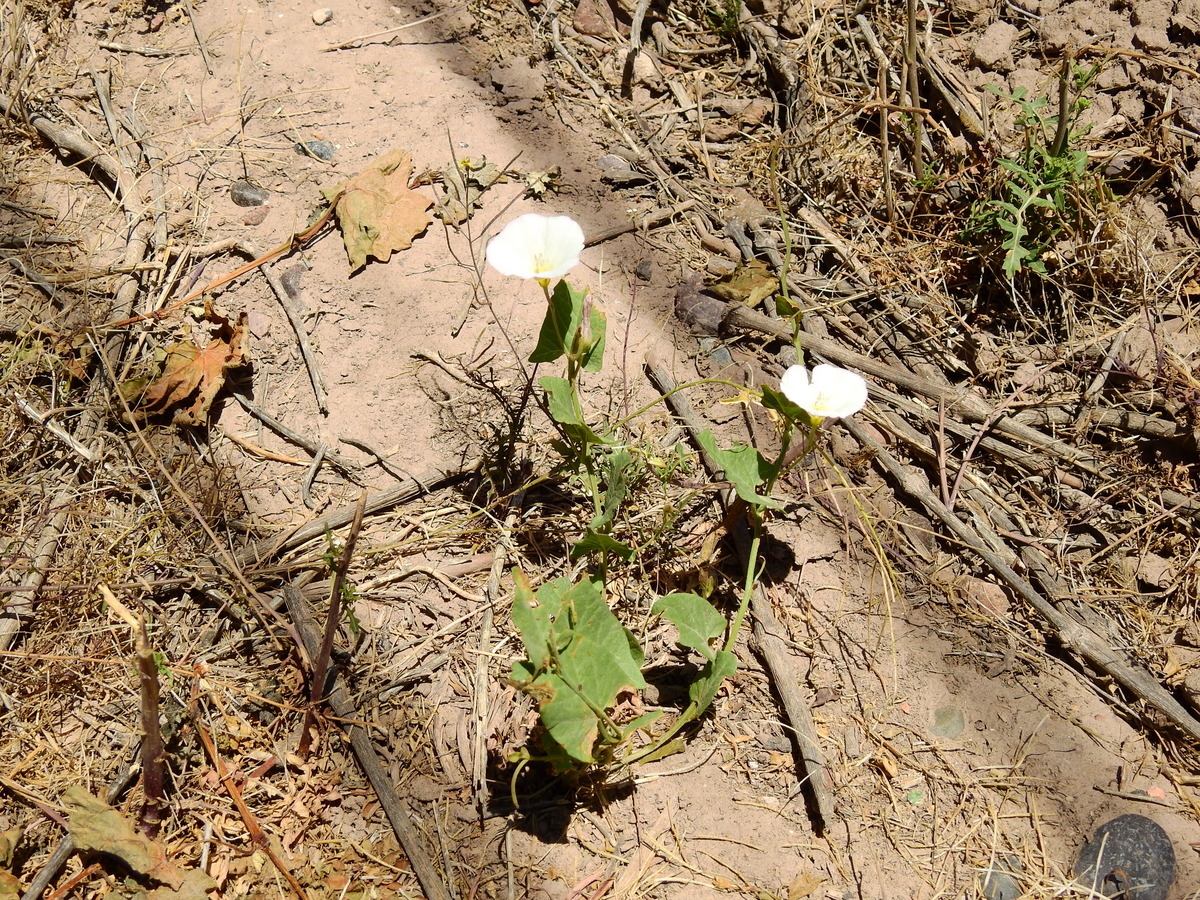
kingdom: Plantae
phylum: Tracheophyta
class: Magnoliopsida
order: Solanales
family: Convolvulaceae
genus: Convolvulus
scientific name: Convolvulus arvensis
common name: Field bindweed
